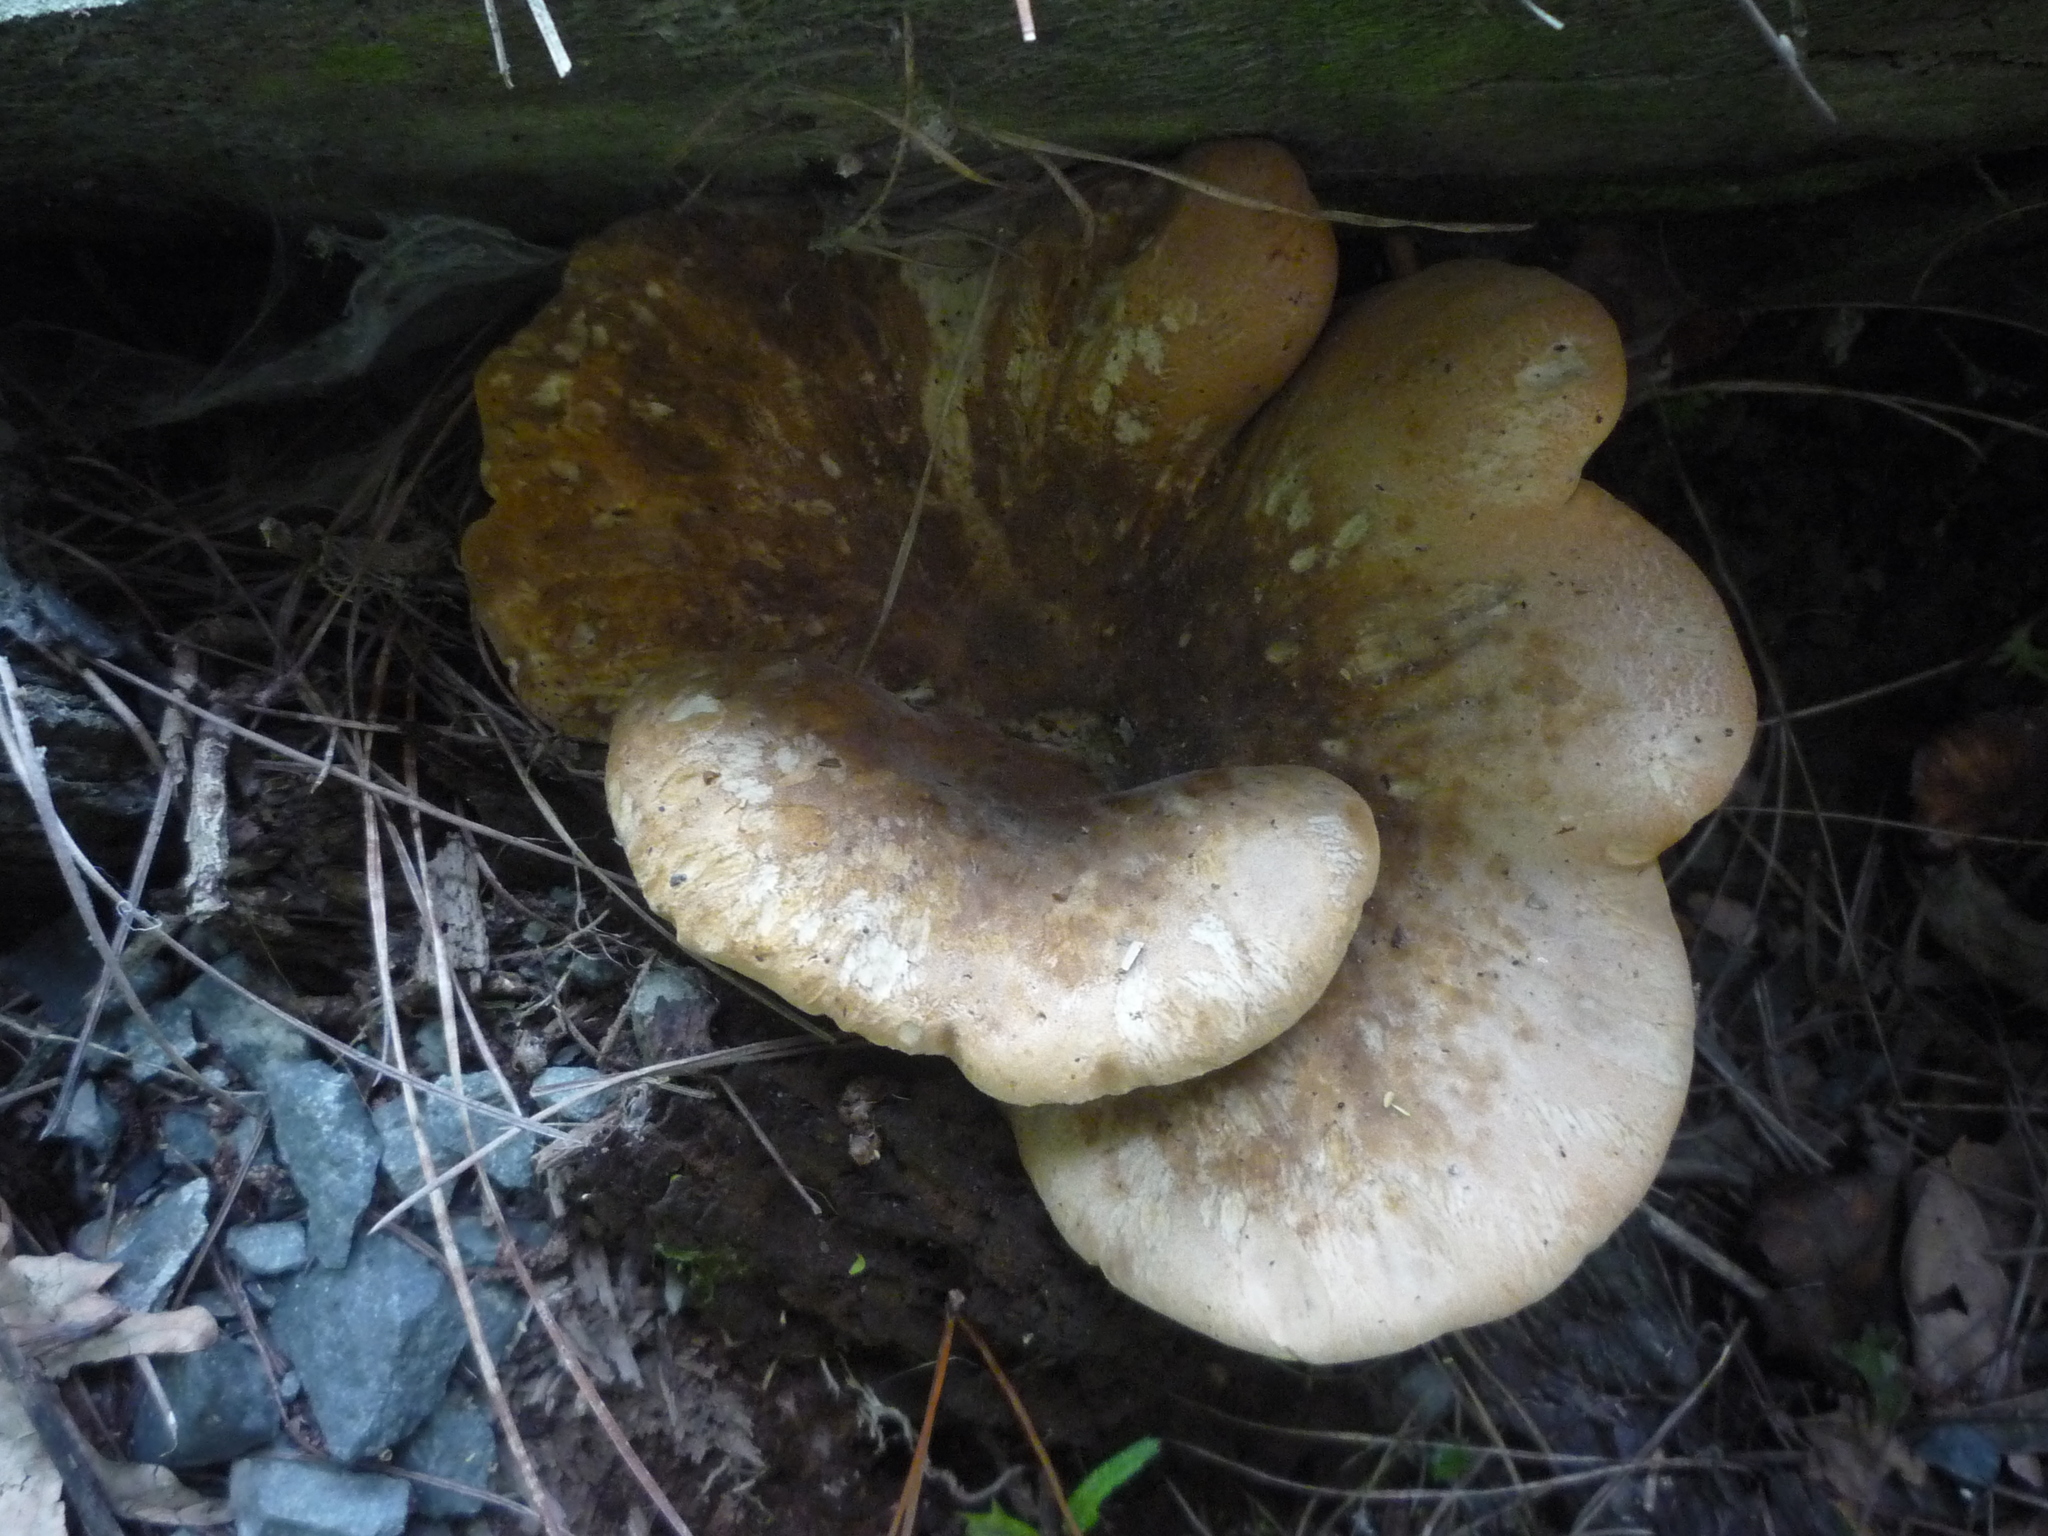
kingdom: Fungi
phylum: Basidiomycota
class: Agaricomycetes
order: Boletales
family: Tapinellaceae
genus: Tapinella
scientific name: Tapinella atrotomentosa
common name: Velvet rollrim
